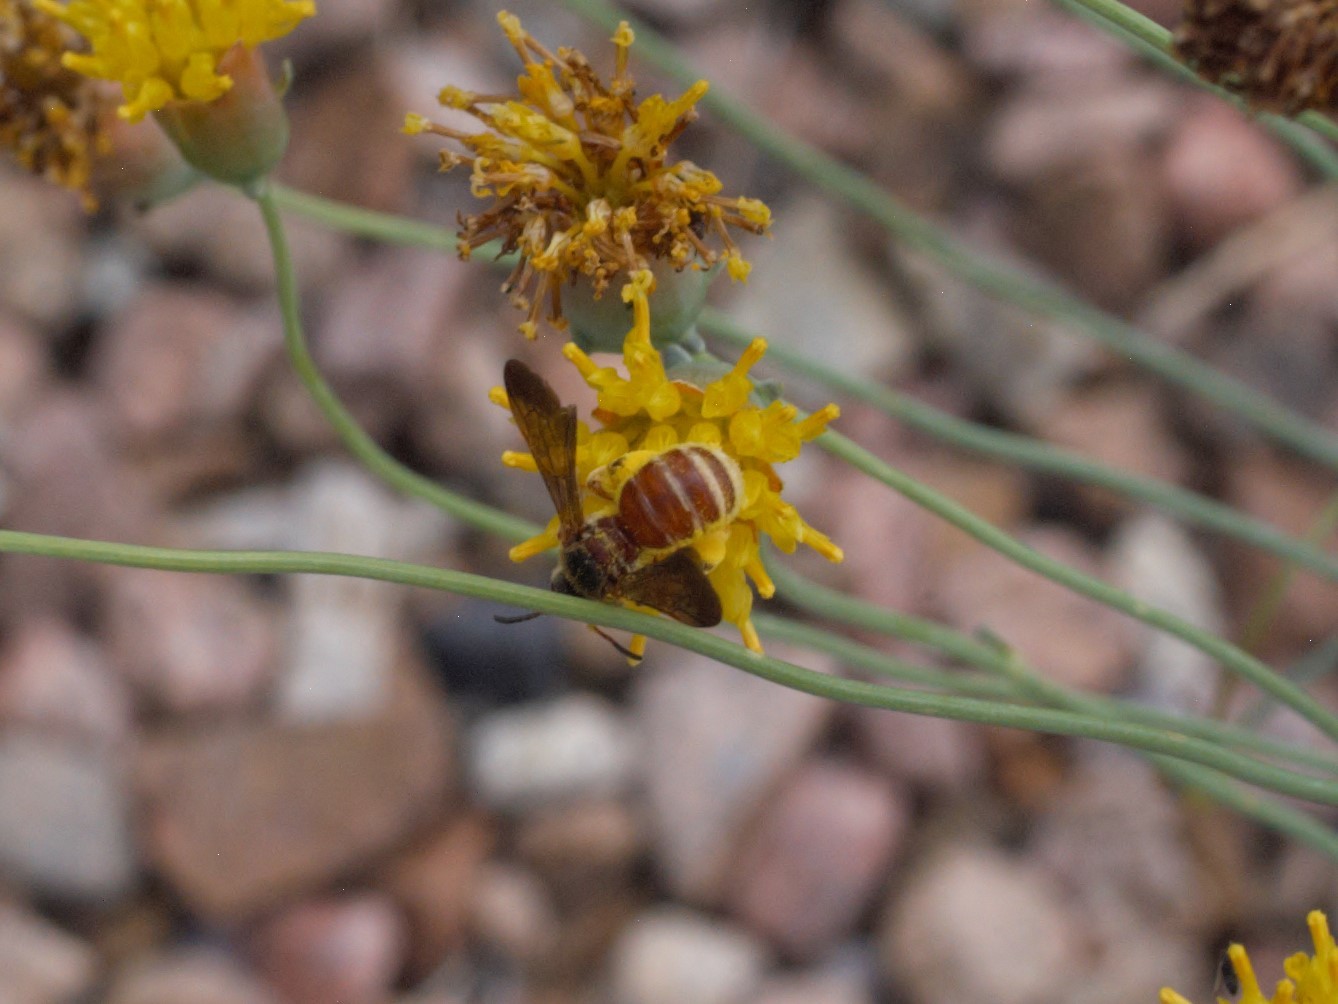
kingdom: Animalia
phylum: Arthropoda
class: Insecta
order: Hymenoptera
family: Halictidae
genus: Dieunomia
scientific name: Dieunomia nevadensis
